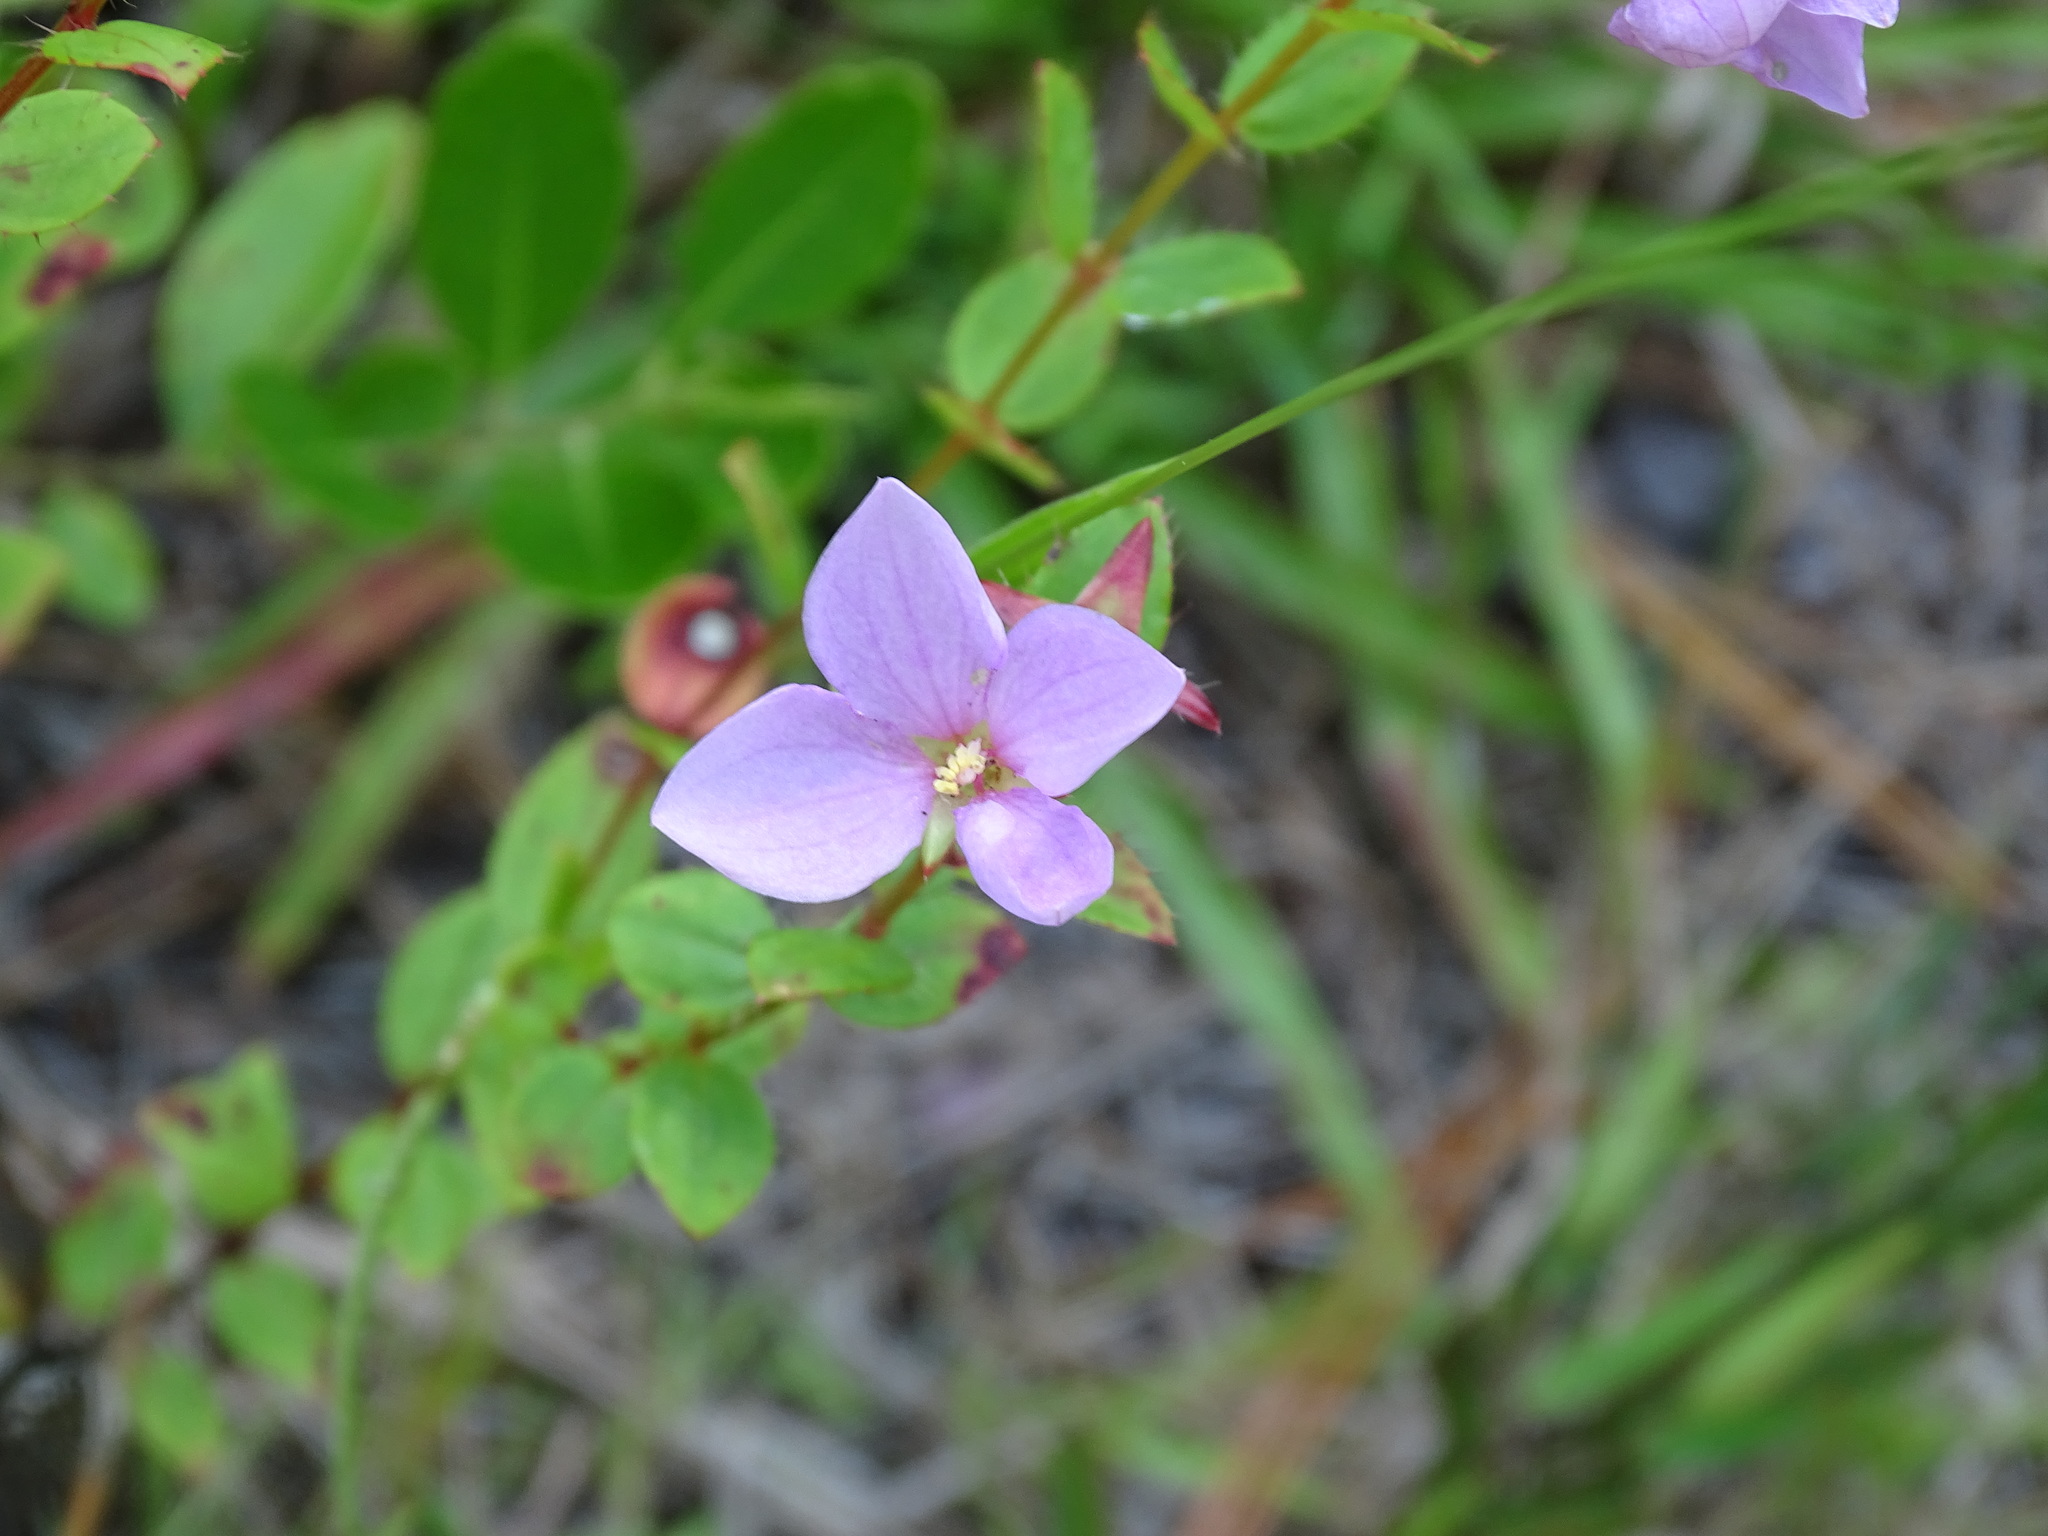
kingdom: Plantae
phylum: Tracheophyta
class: Magnoliopsida
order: Myrtales
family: Melastomataceae
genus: Rhexia
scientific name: Rhexia petiolata
